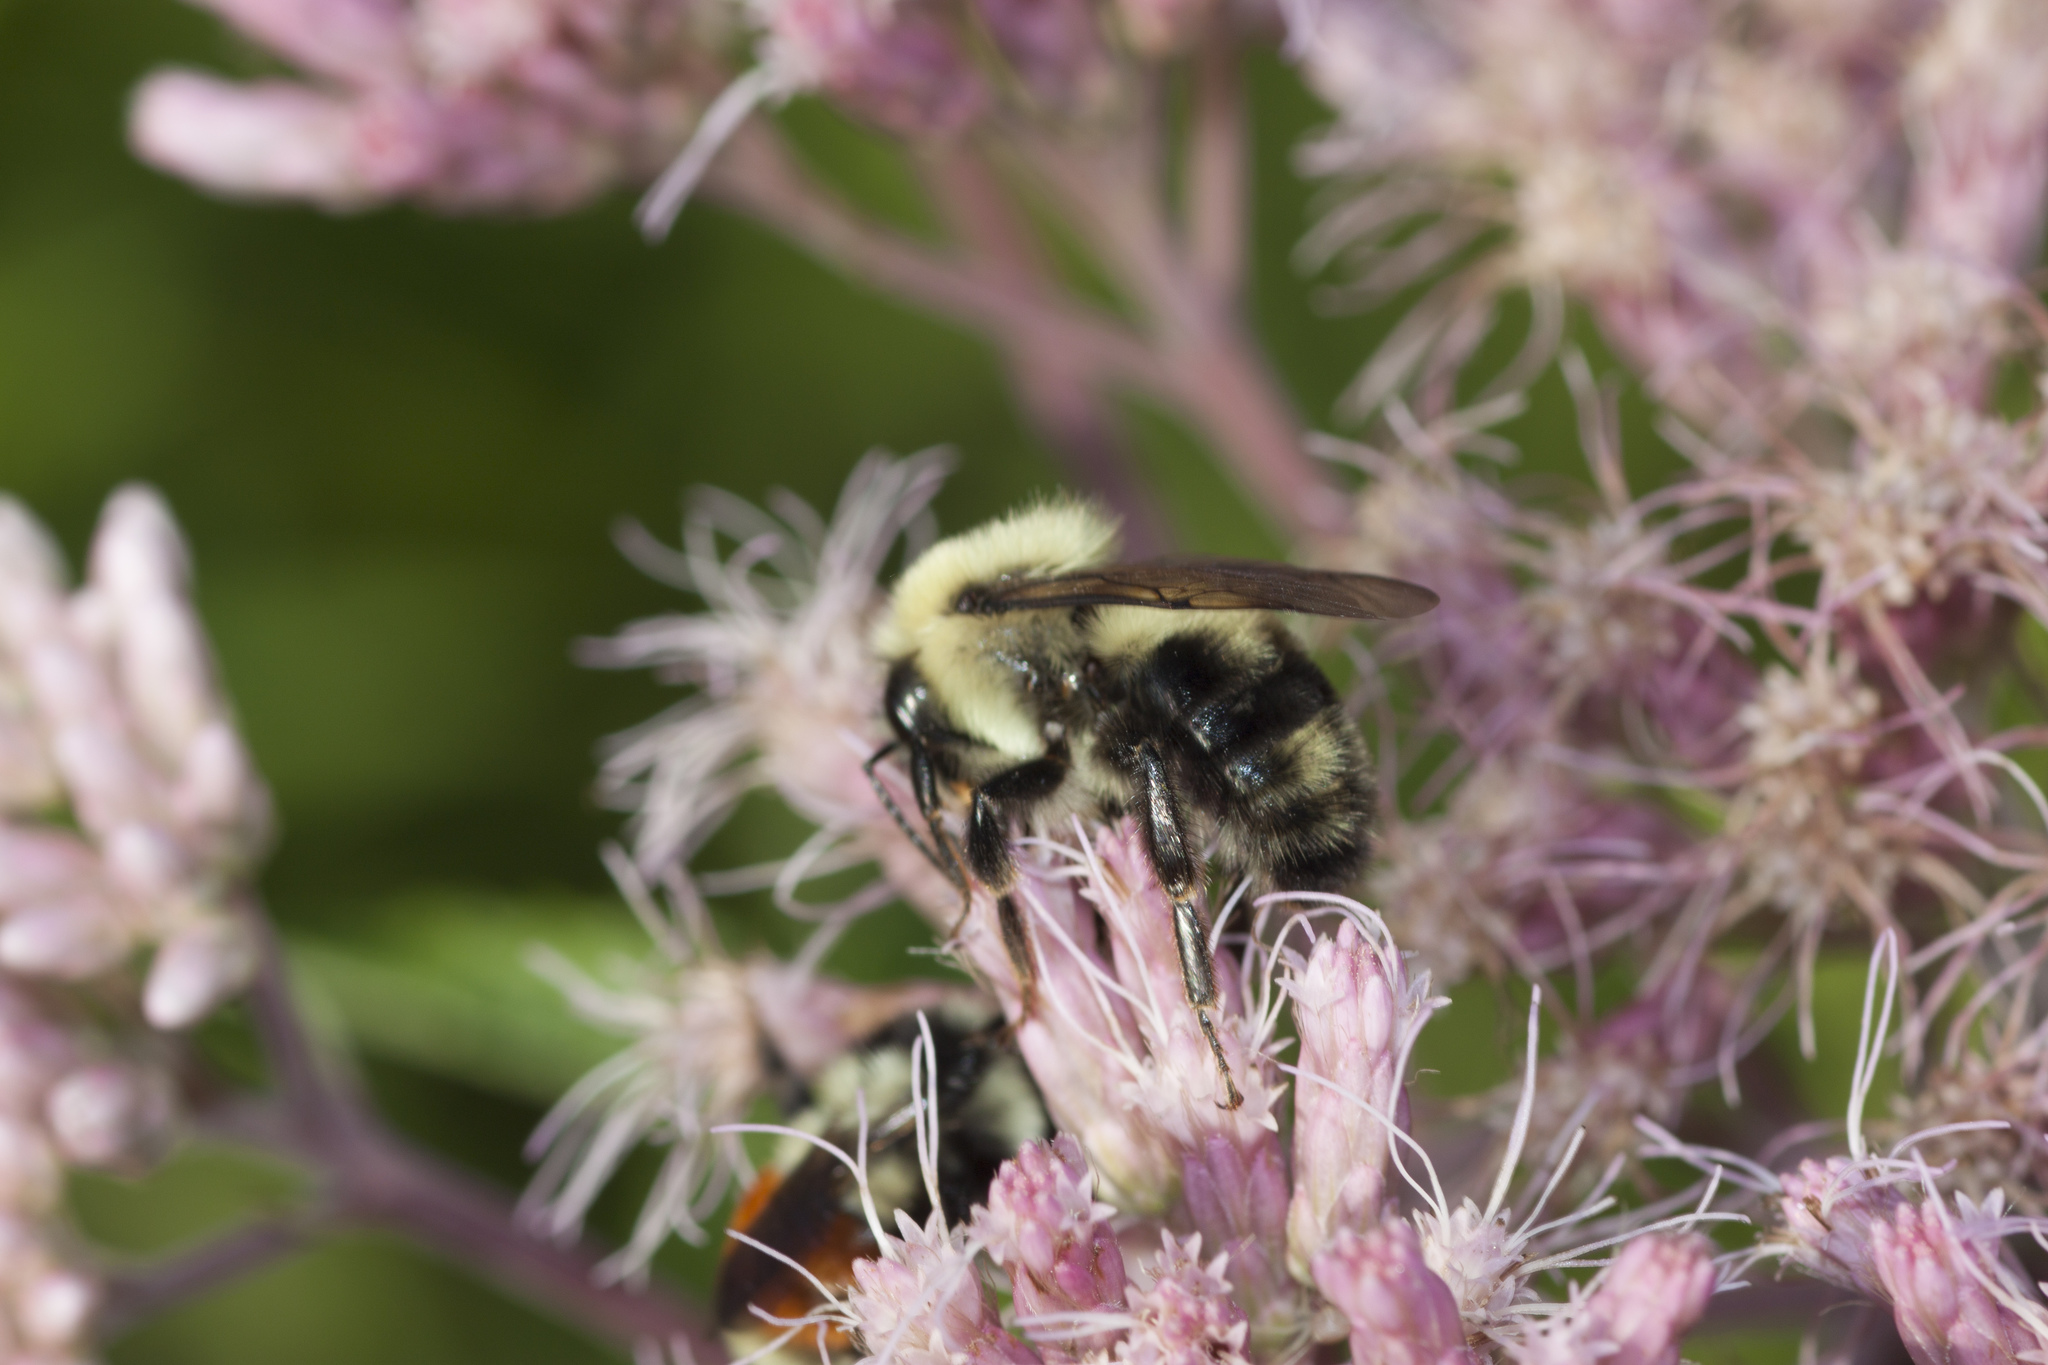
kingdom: Animalia
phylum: Arthropoda
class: Insecta
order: Hymenoptera
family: Apidae
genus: Bombus
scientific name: Bombus bimaculatus
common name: Two-spotted bumble bee
